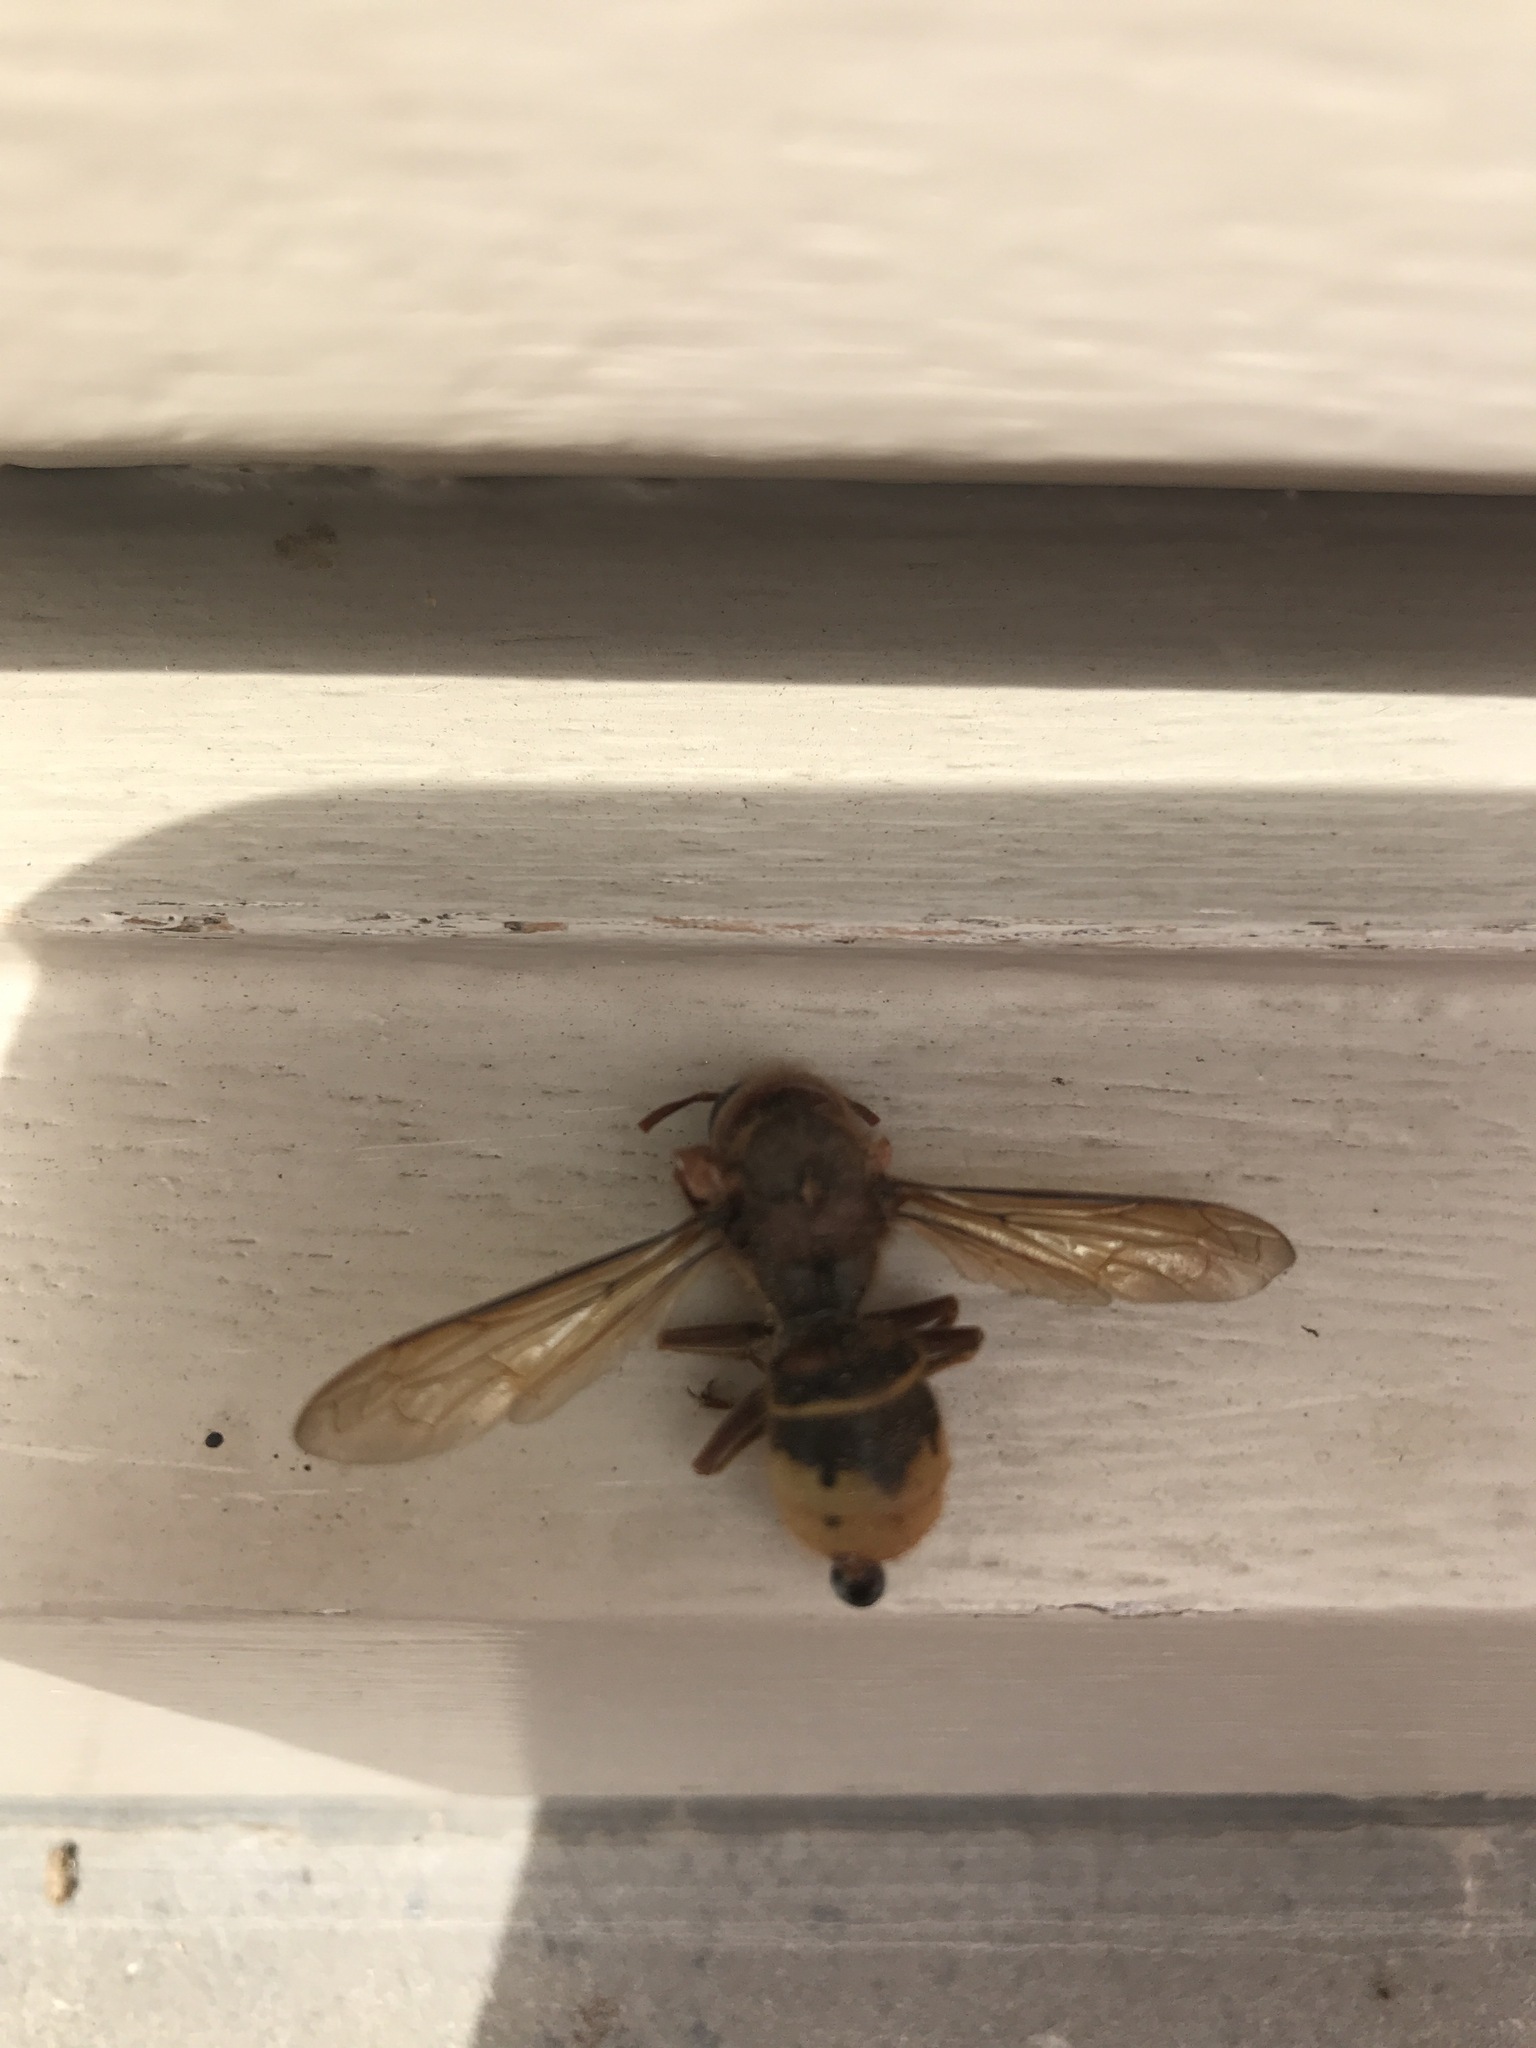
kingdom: Animalia
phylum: Arthropoda
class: Insecta
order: Hymenoptera
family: Vespidae
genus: Vespa
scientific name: Vespa crabro
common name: Hornet
